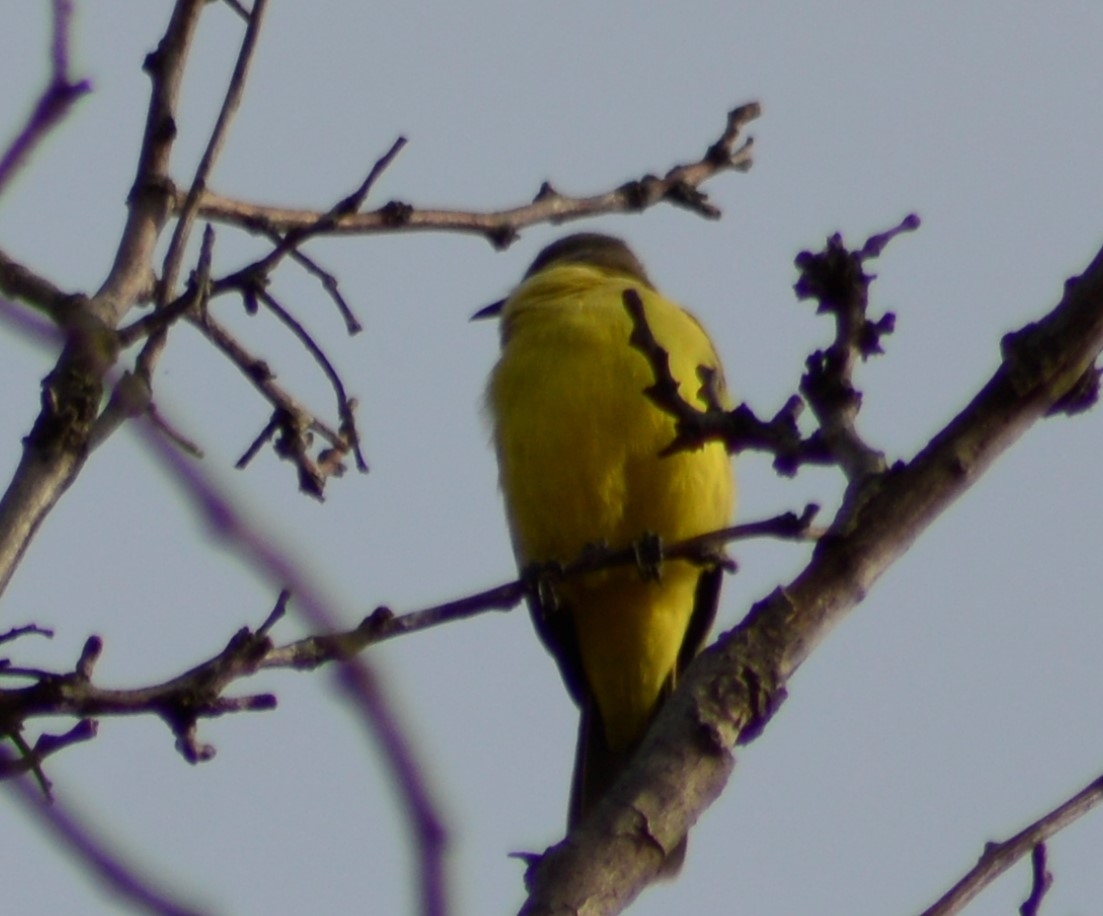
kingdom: Animalia
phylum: Chordata
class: Aves
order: Passeriformes
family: Tyrannidae
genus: Machetornis
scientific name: Machetornis rixosa
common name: Cattle tyrant
